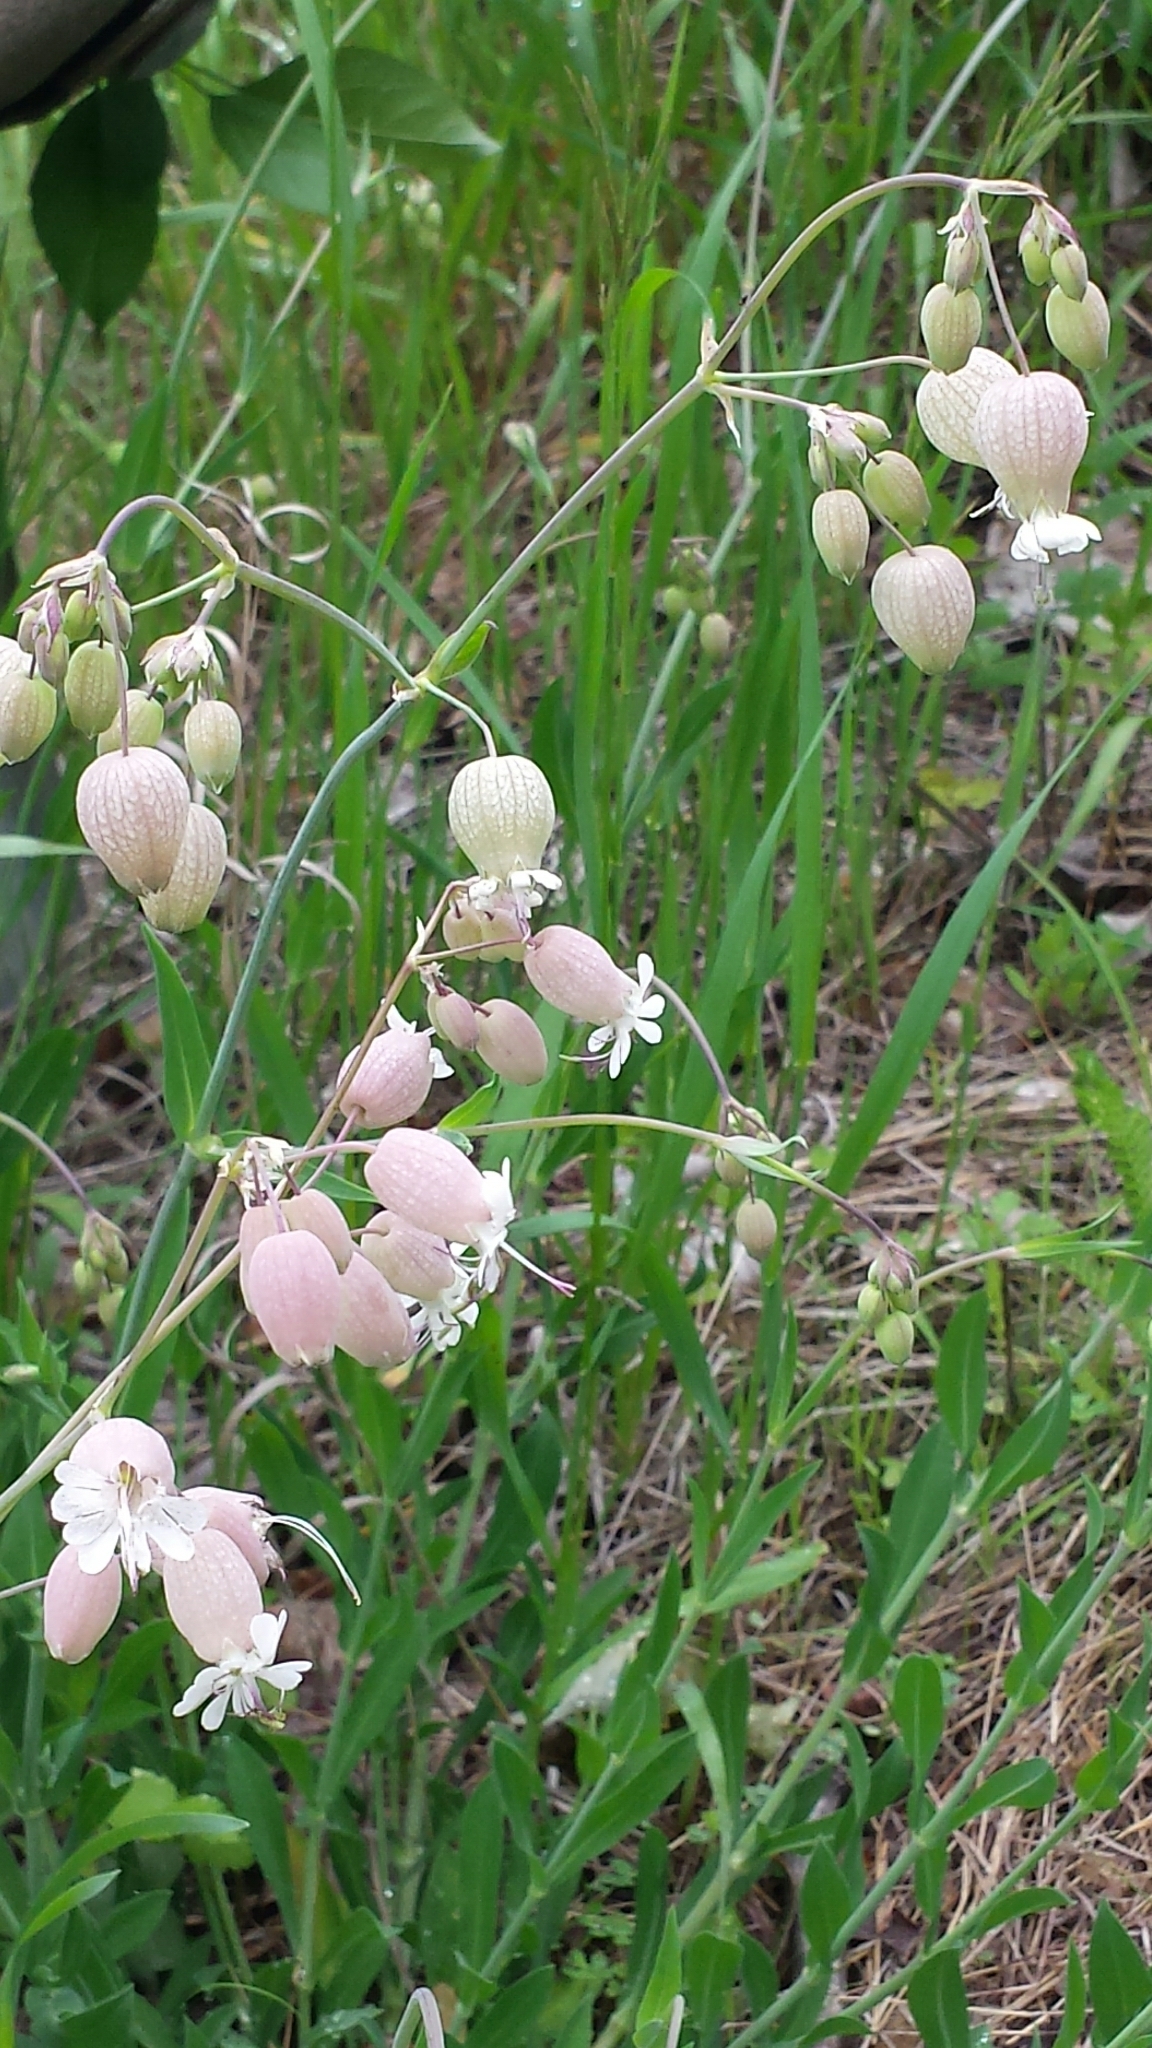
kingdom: Plantae
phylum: Tracheophyta
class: Magnoliopsida
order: Caryophyllales
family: Caryophyllaceae
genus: Silene
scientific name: Silene vulgaris
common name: Bladder campion
